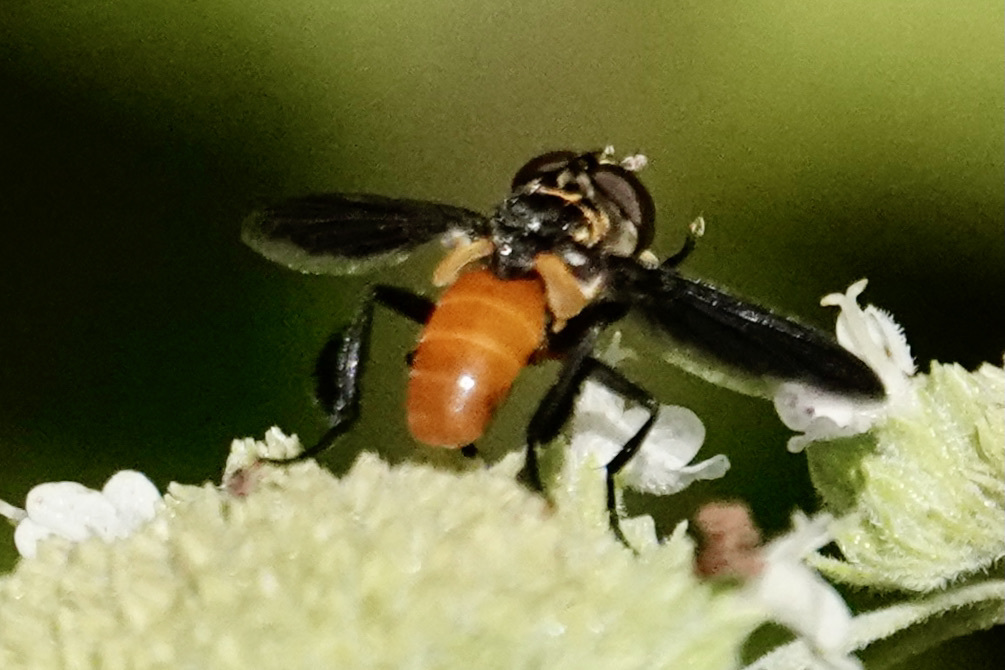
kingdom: Animalia
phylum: Arthropoda
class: Insecta
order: Diptera
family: Tachinidae
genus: Trichopoda
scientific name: Trichopoda pennipes
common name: Tachinid fly
